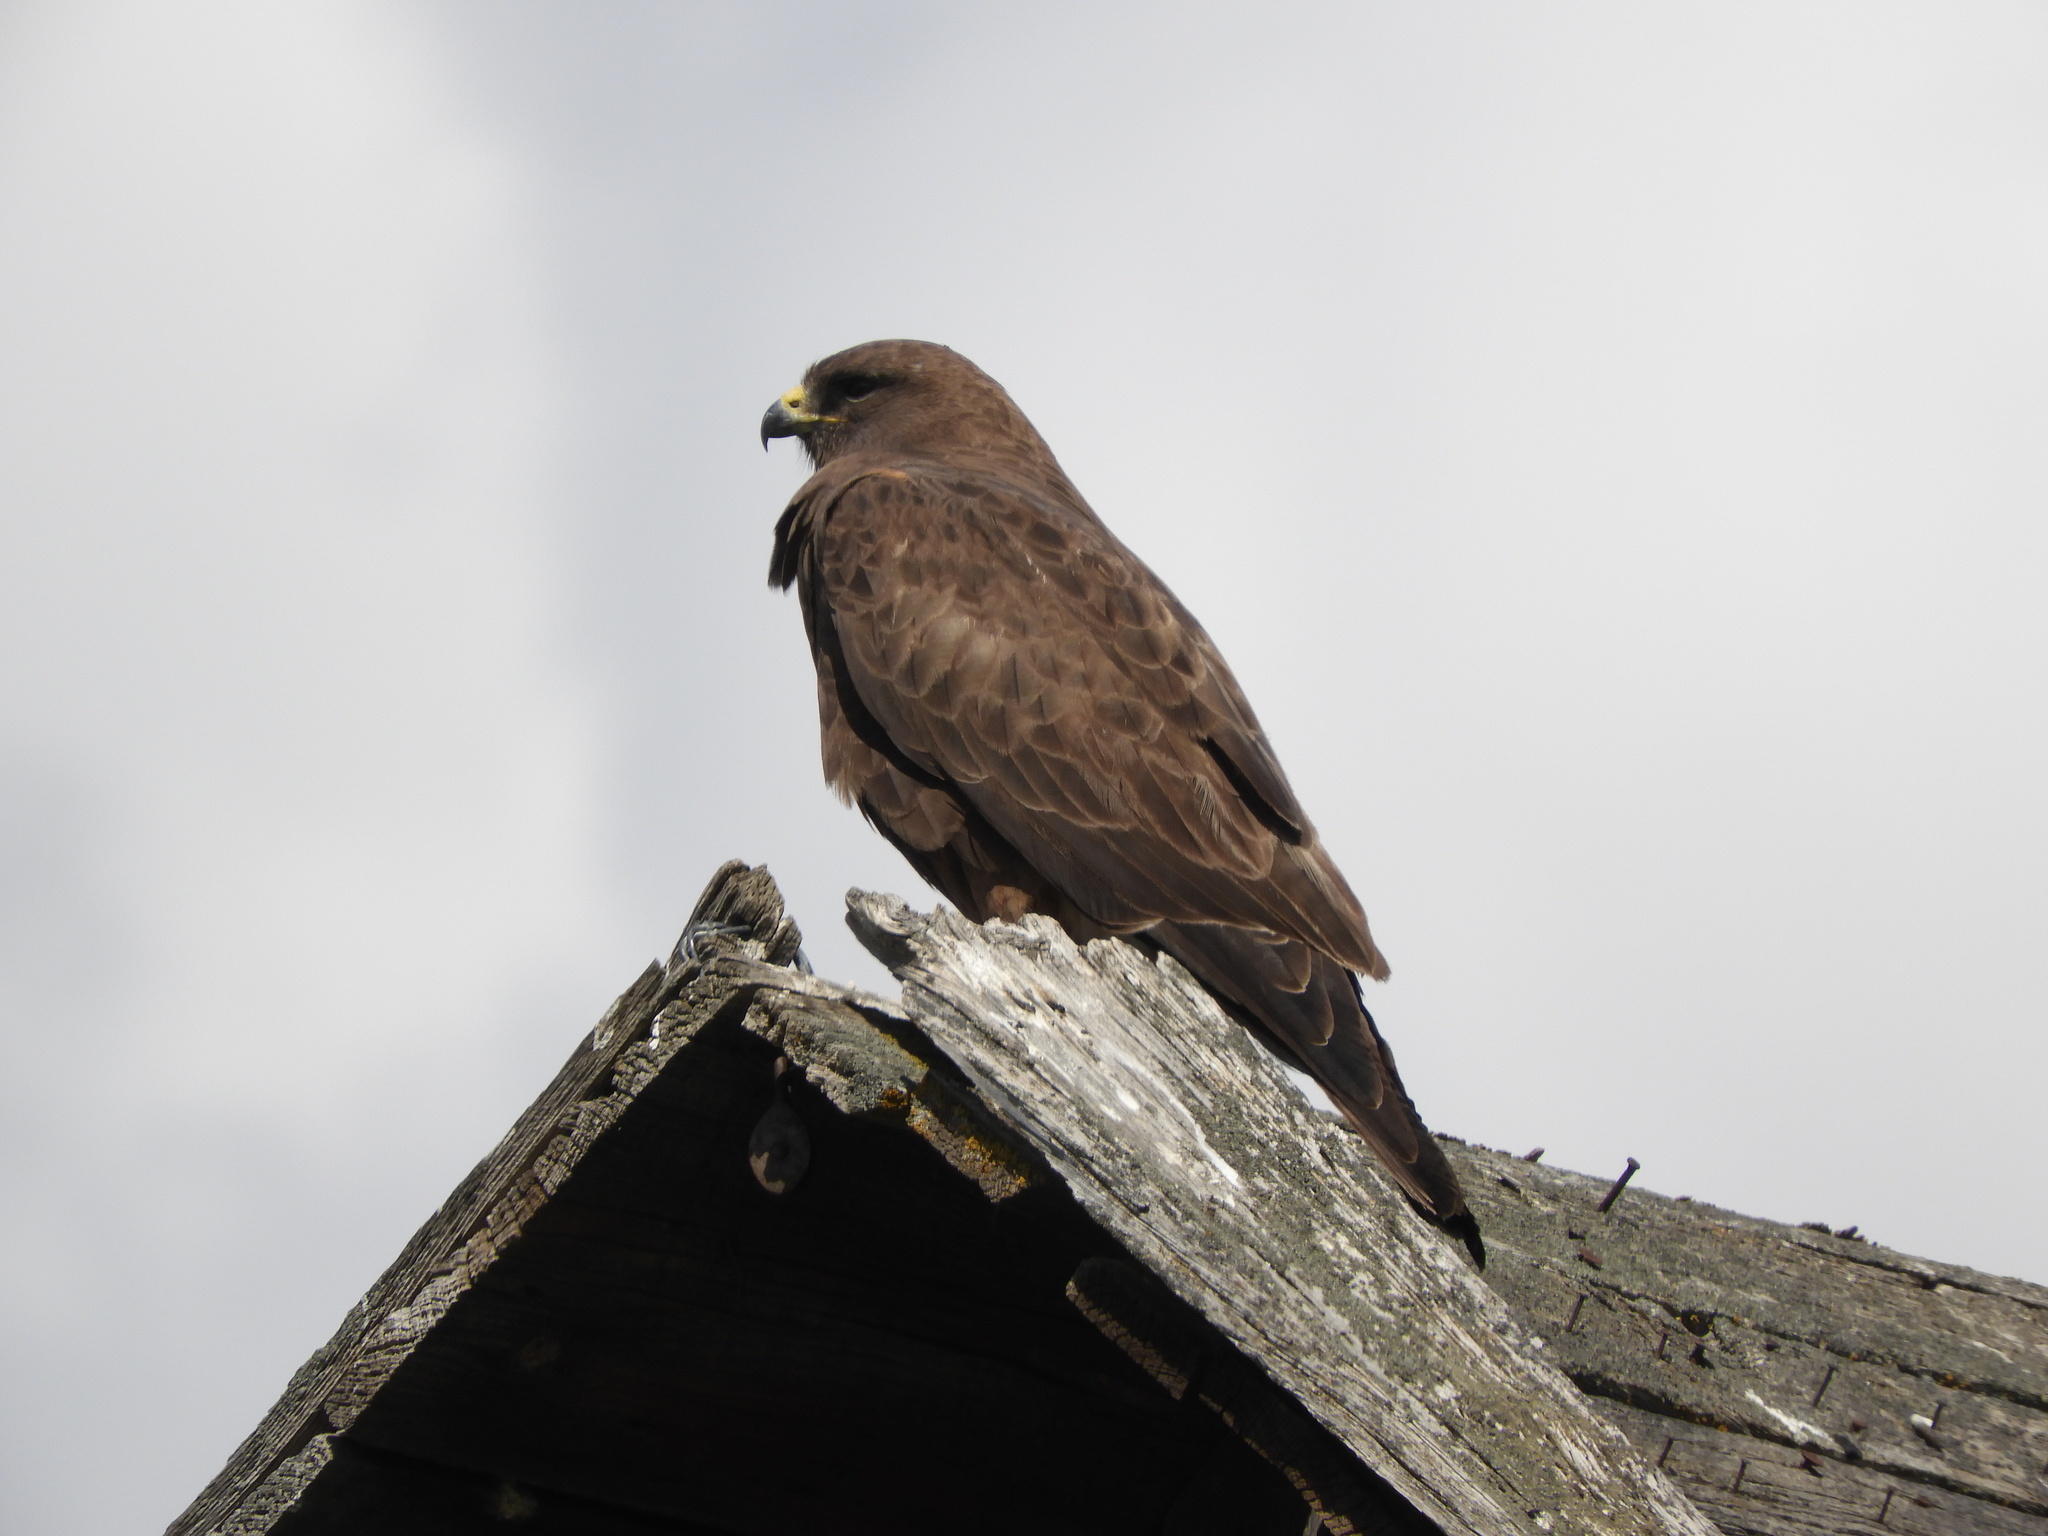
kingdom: Animalia
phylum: Chordata
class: Aves
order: Accipitriformes
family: Accipitridae
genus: Buteo
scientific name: Buteo swainsoni
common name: Swainson's hawk
